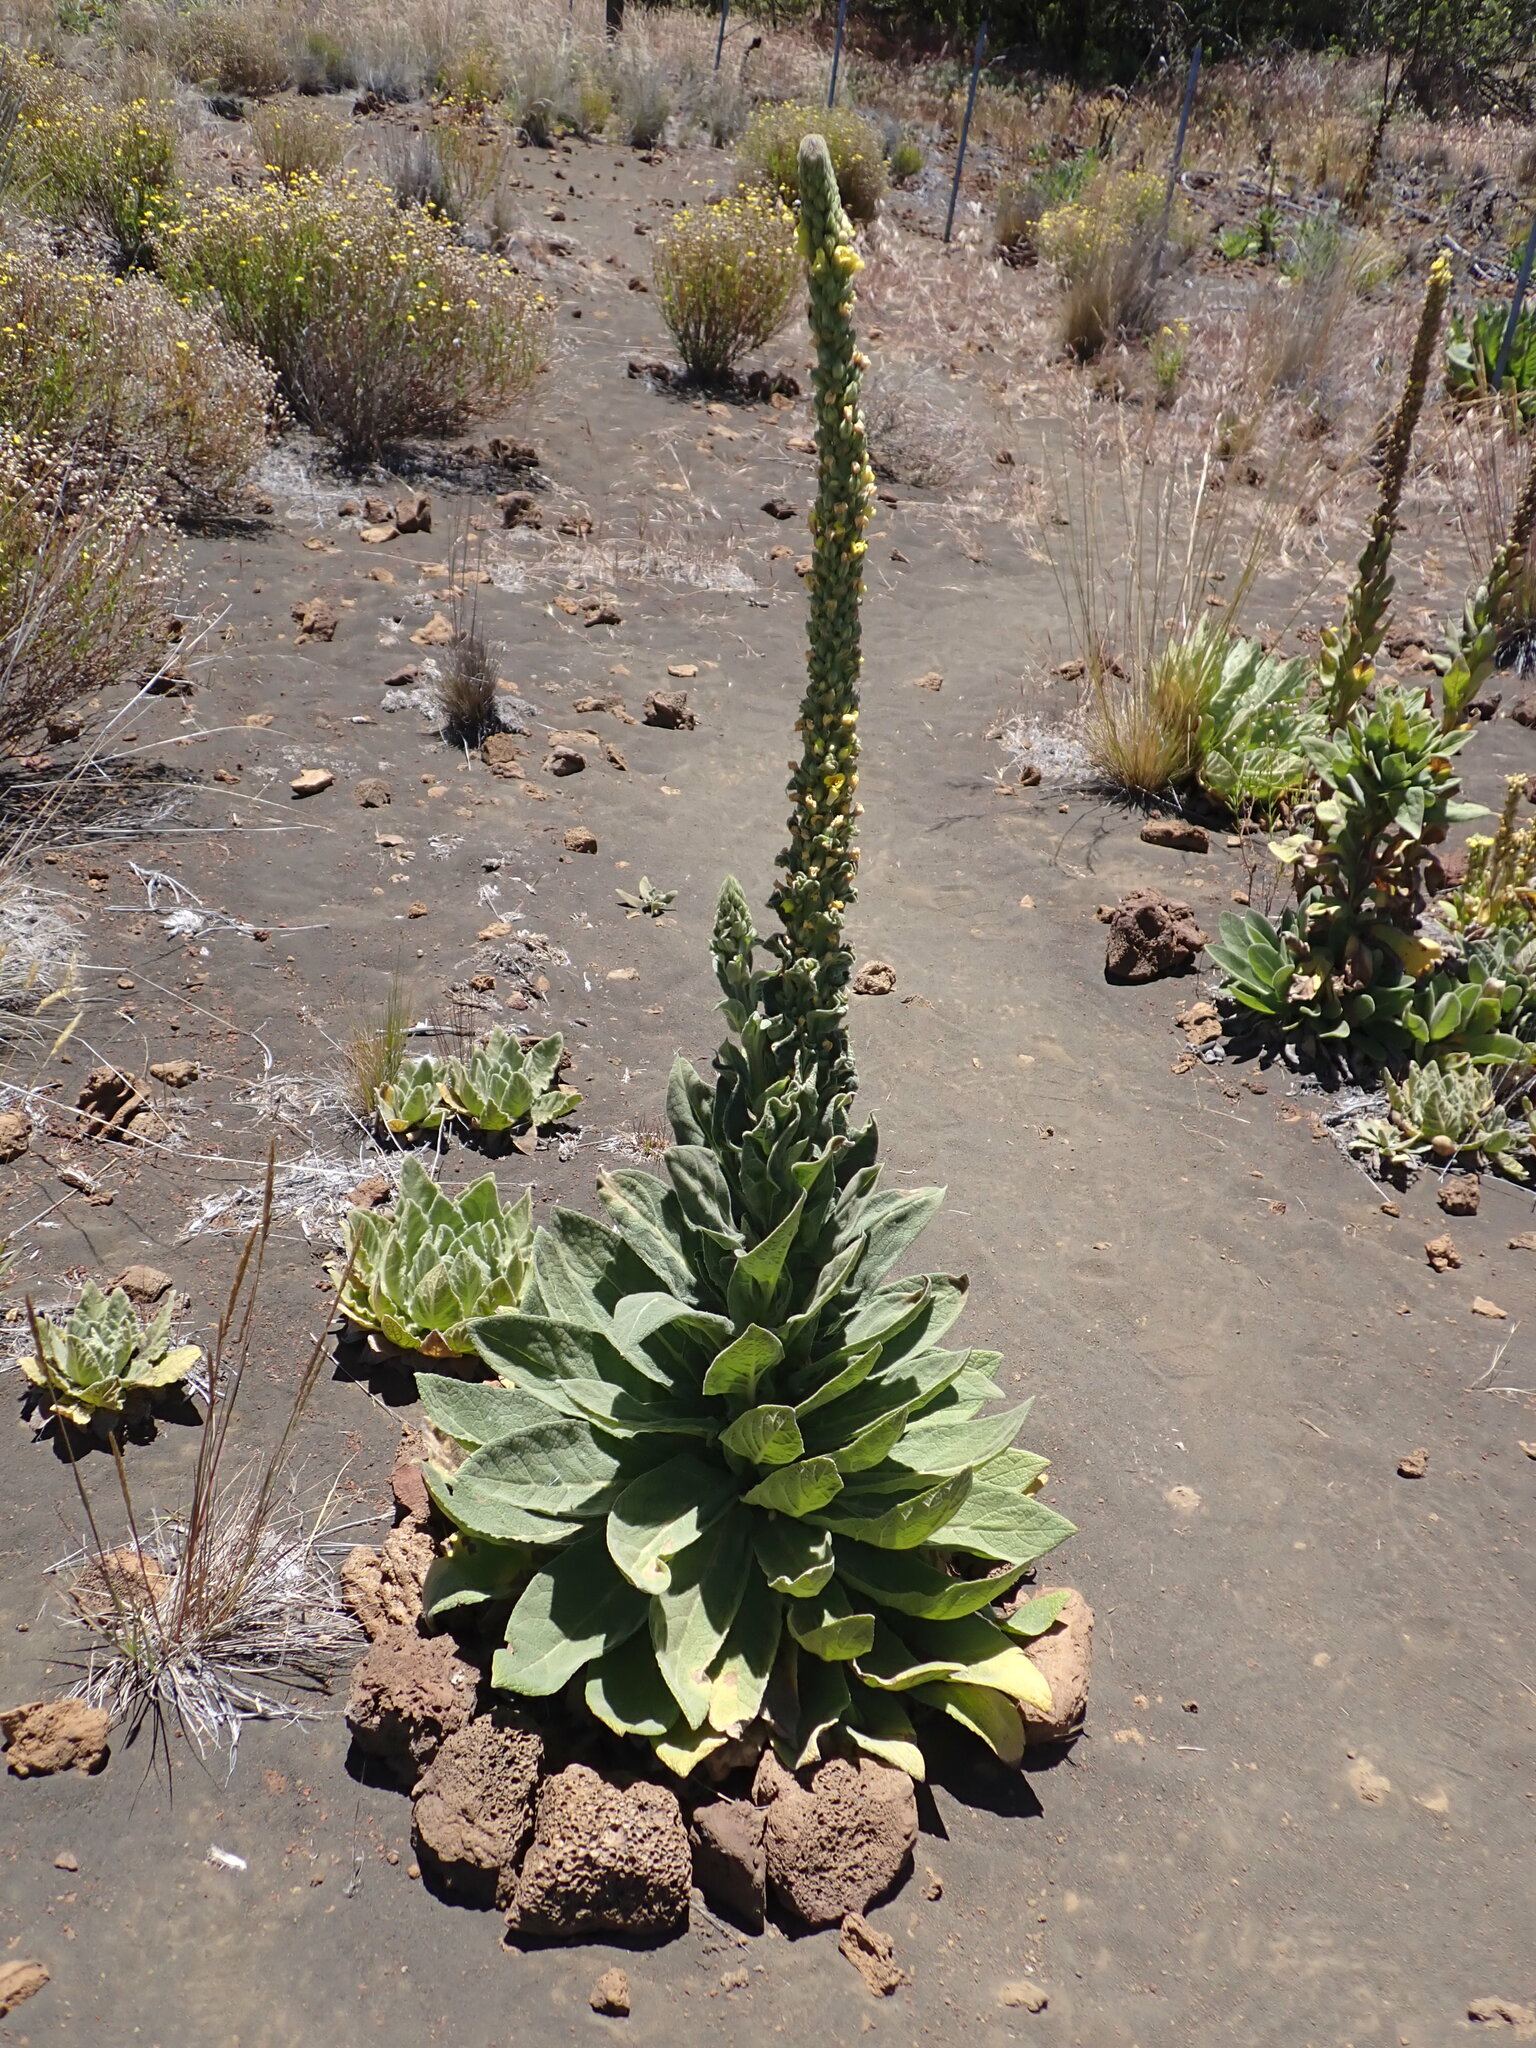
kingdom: Plantae
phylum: Tracheophyta
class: Magnoliopsida
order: Lamiales
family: Scrophulariaceae
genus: Verbascum
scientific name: Verbascum thapsus
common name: Common mullein
